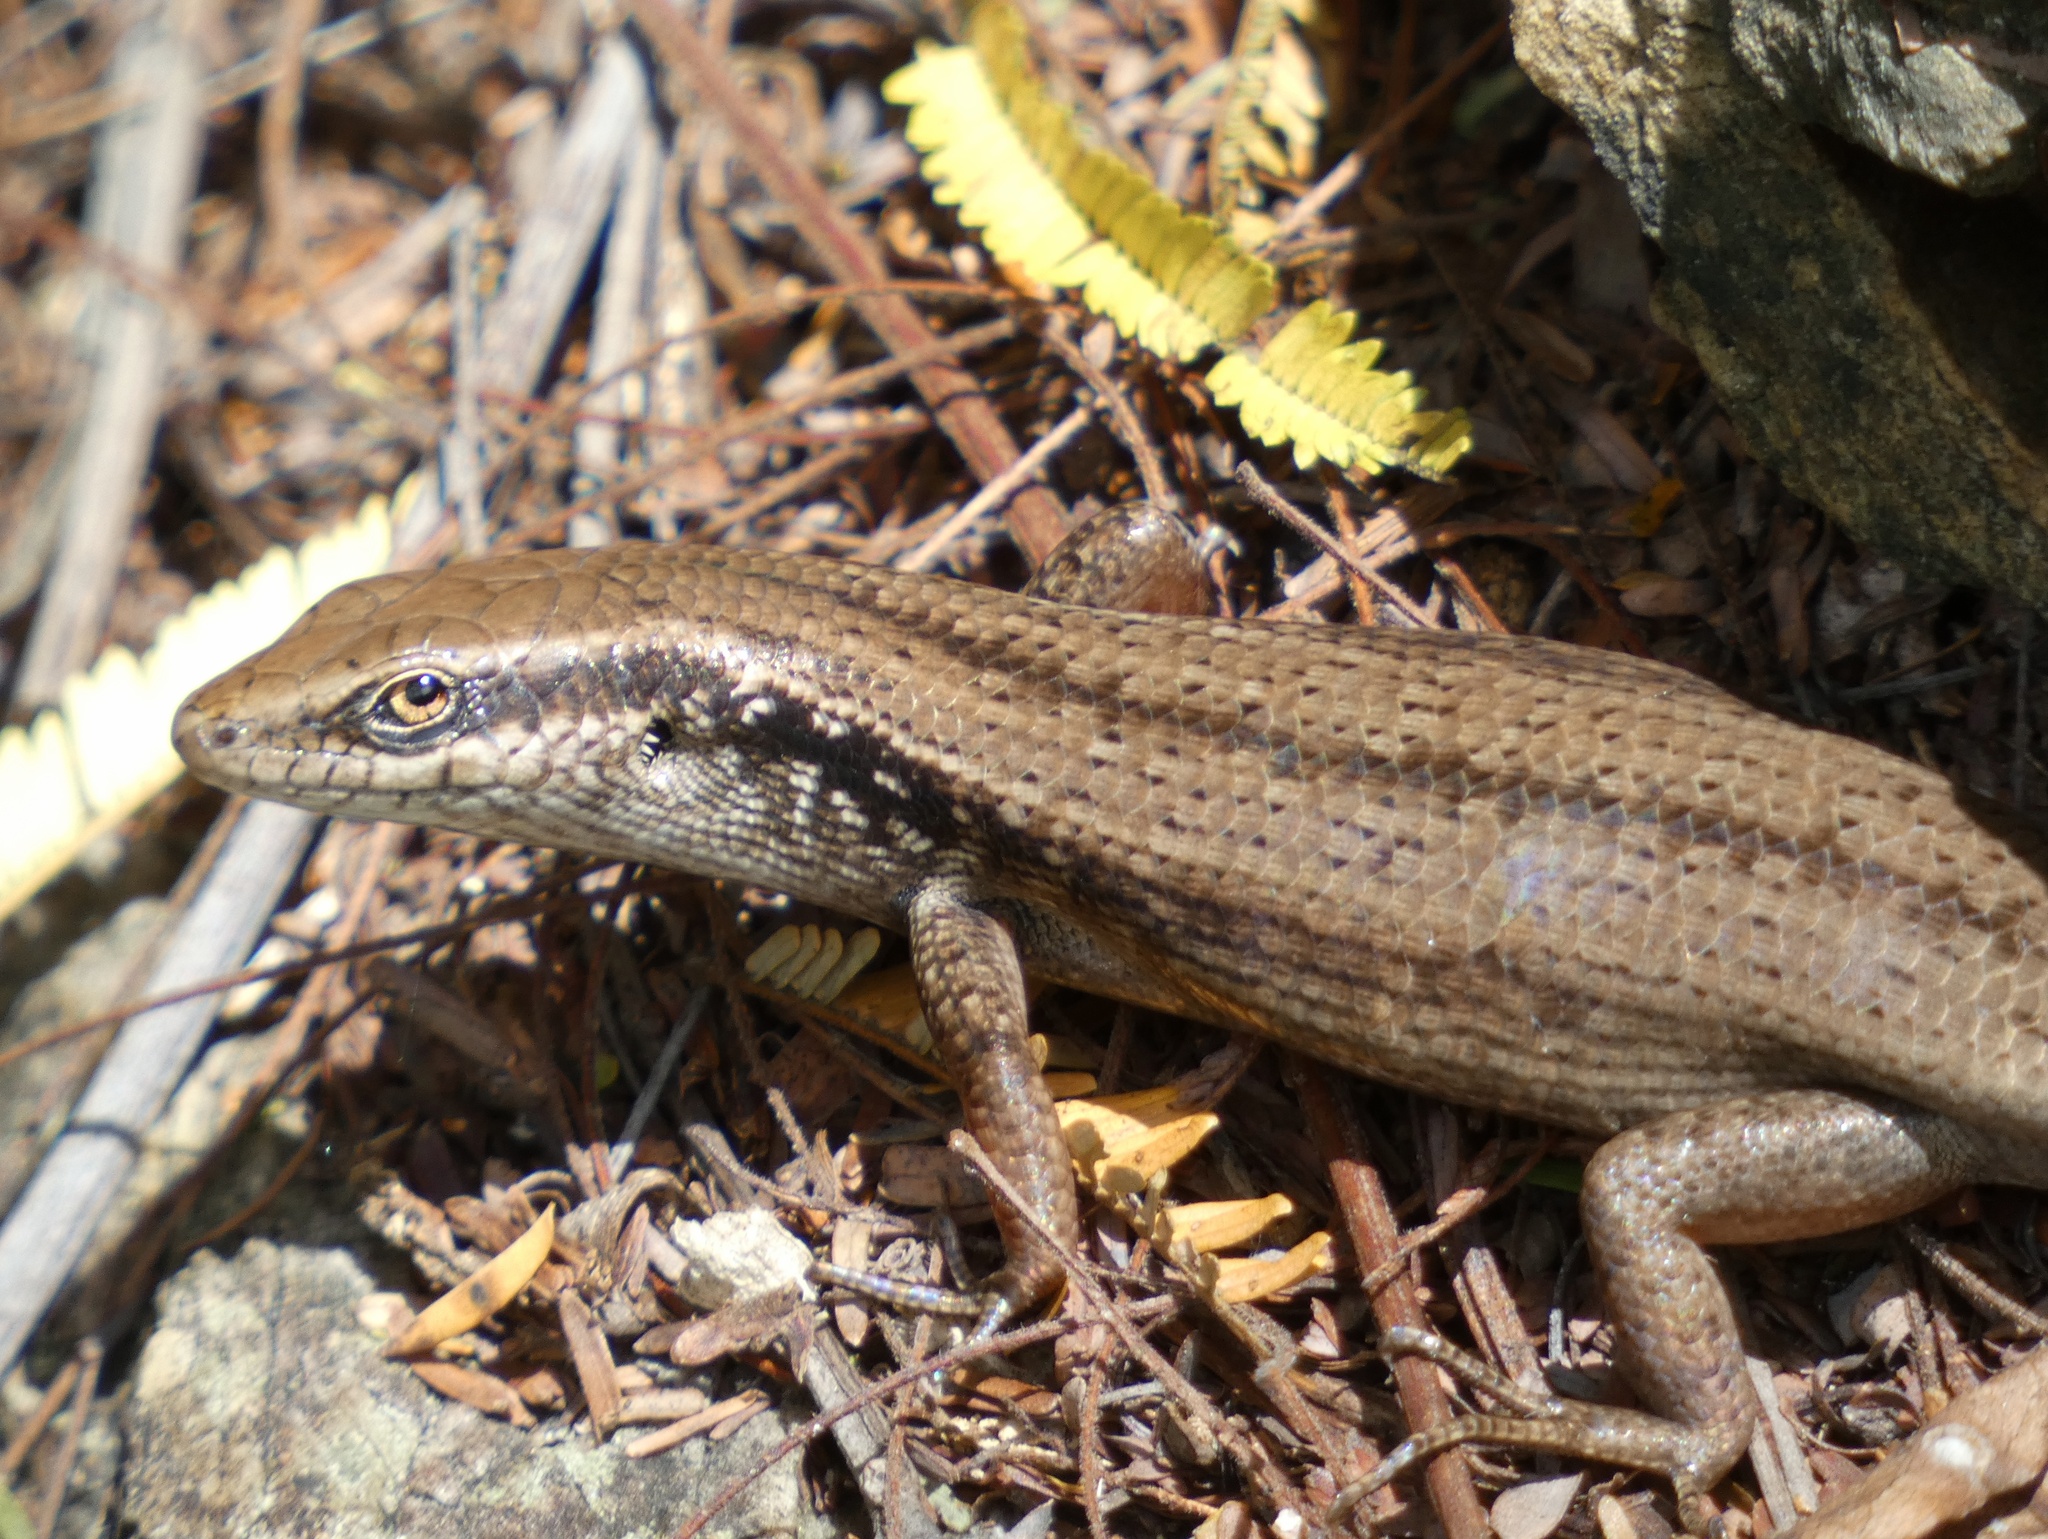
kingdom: Animalia
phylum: Chordata
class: Squamata
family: Scincidae
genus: Carlia
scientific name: Carlia longipes
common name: Closed-litter rainbow-skink
